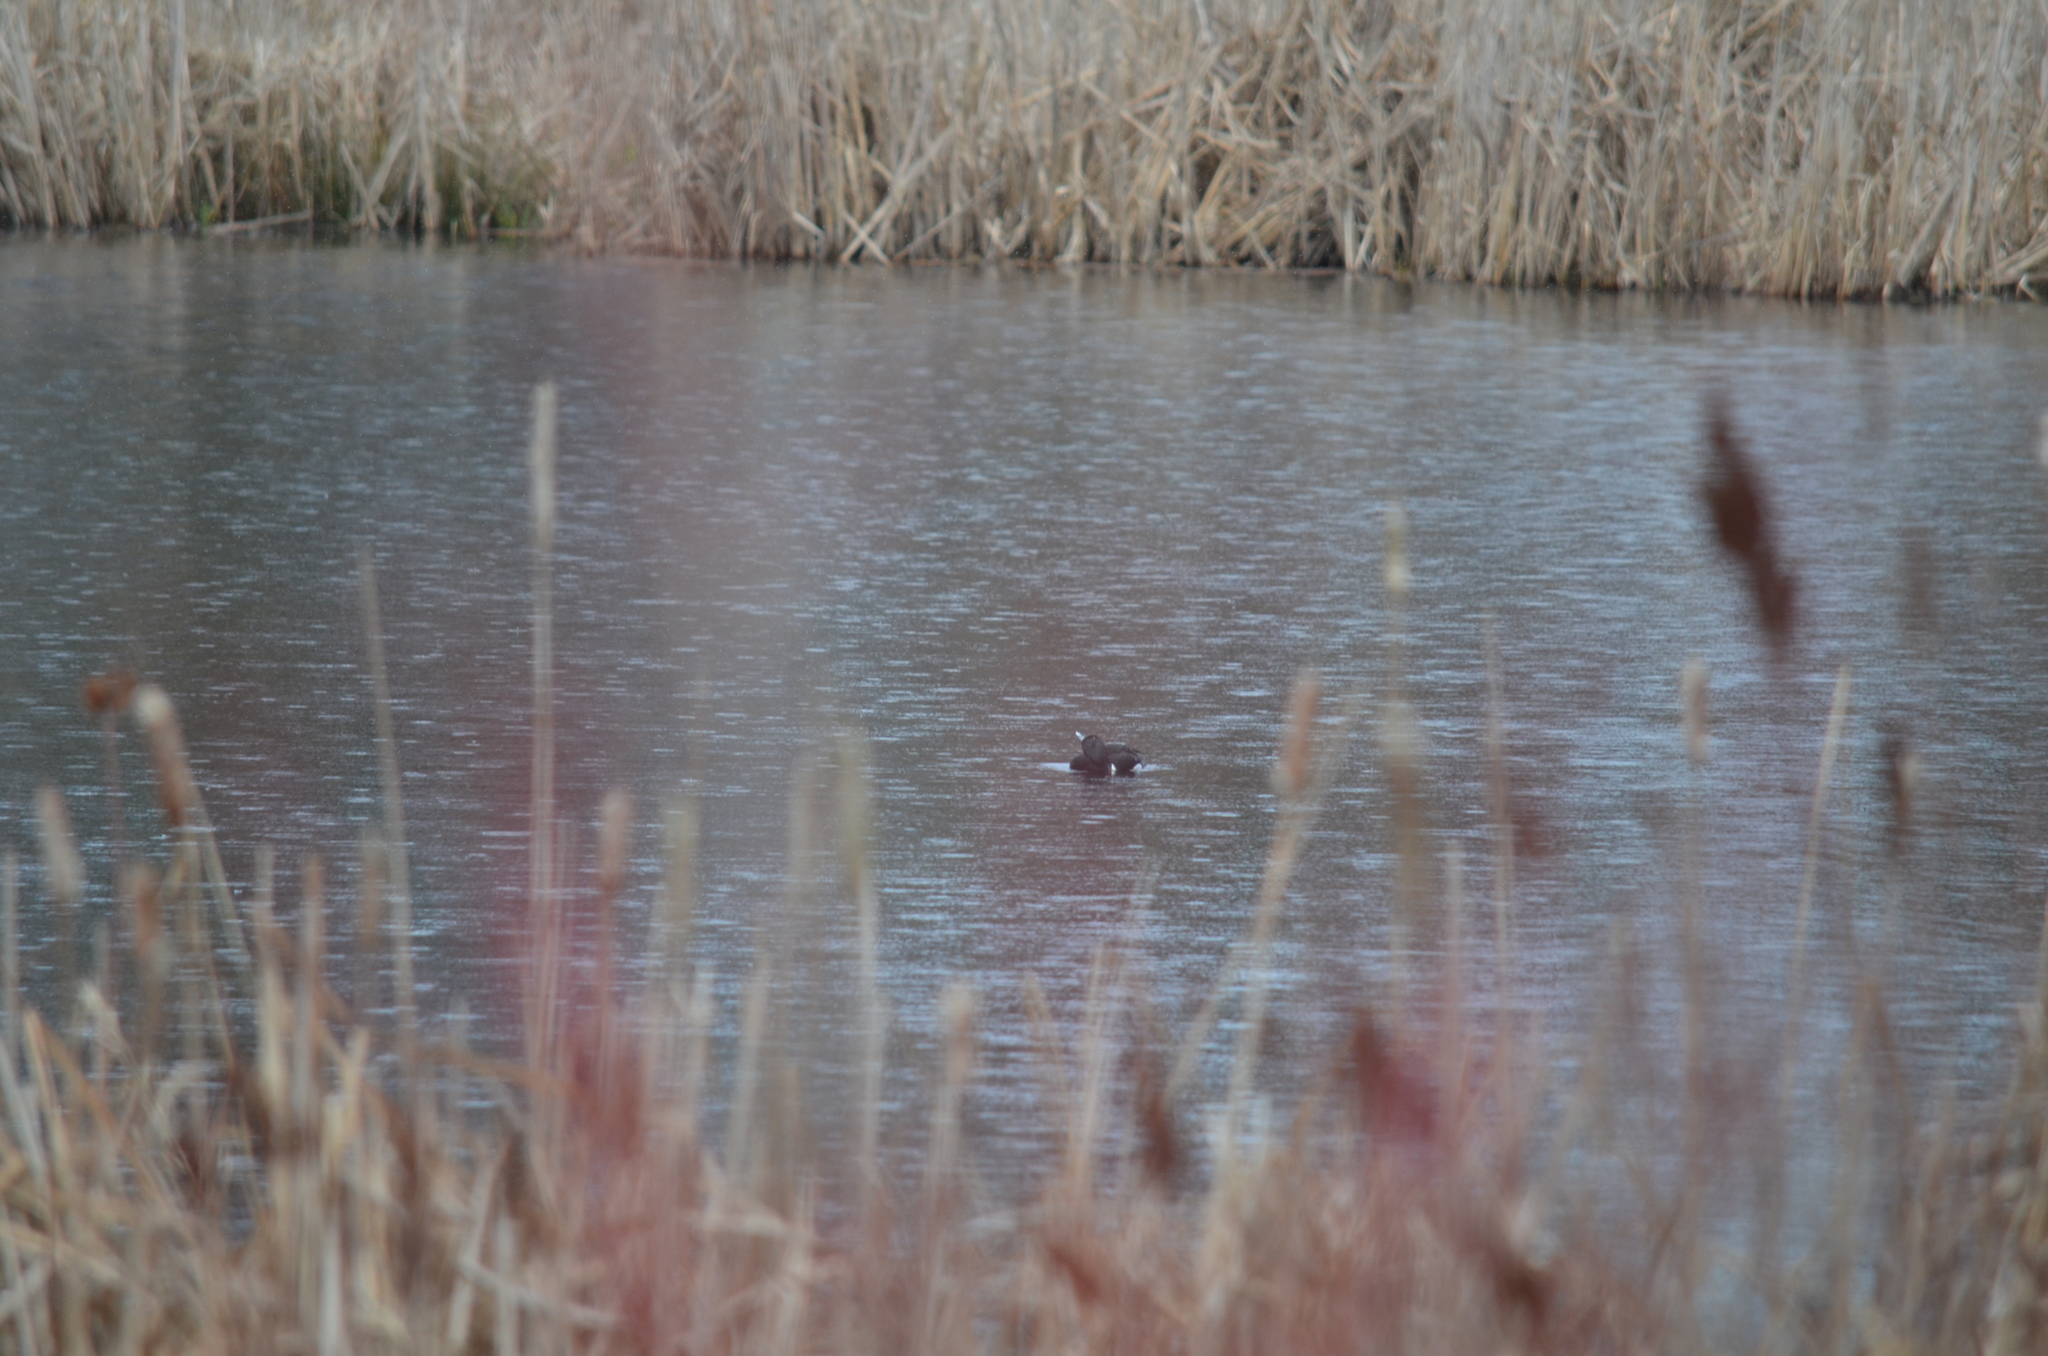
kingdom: Animalia
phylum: Chordata
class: Aves
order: Anseriformes
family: Anatidae
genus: Aythya
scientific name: Aythya collaris
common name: Ring-necked duck
